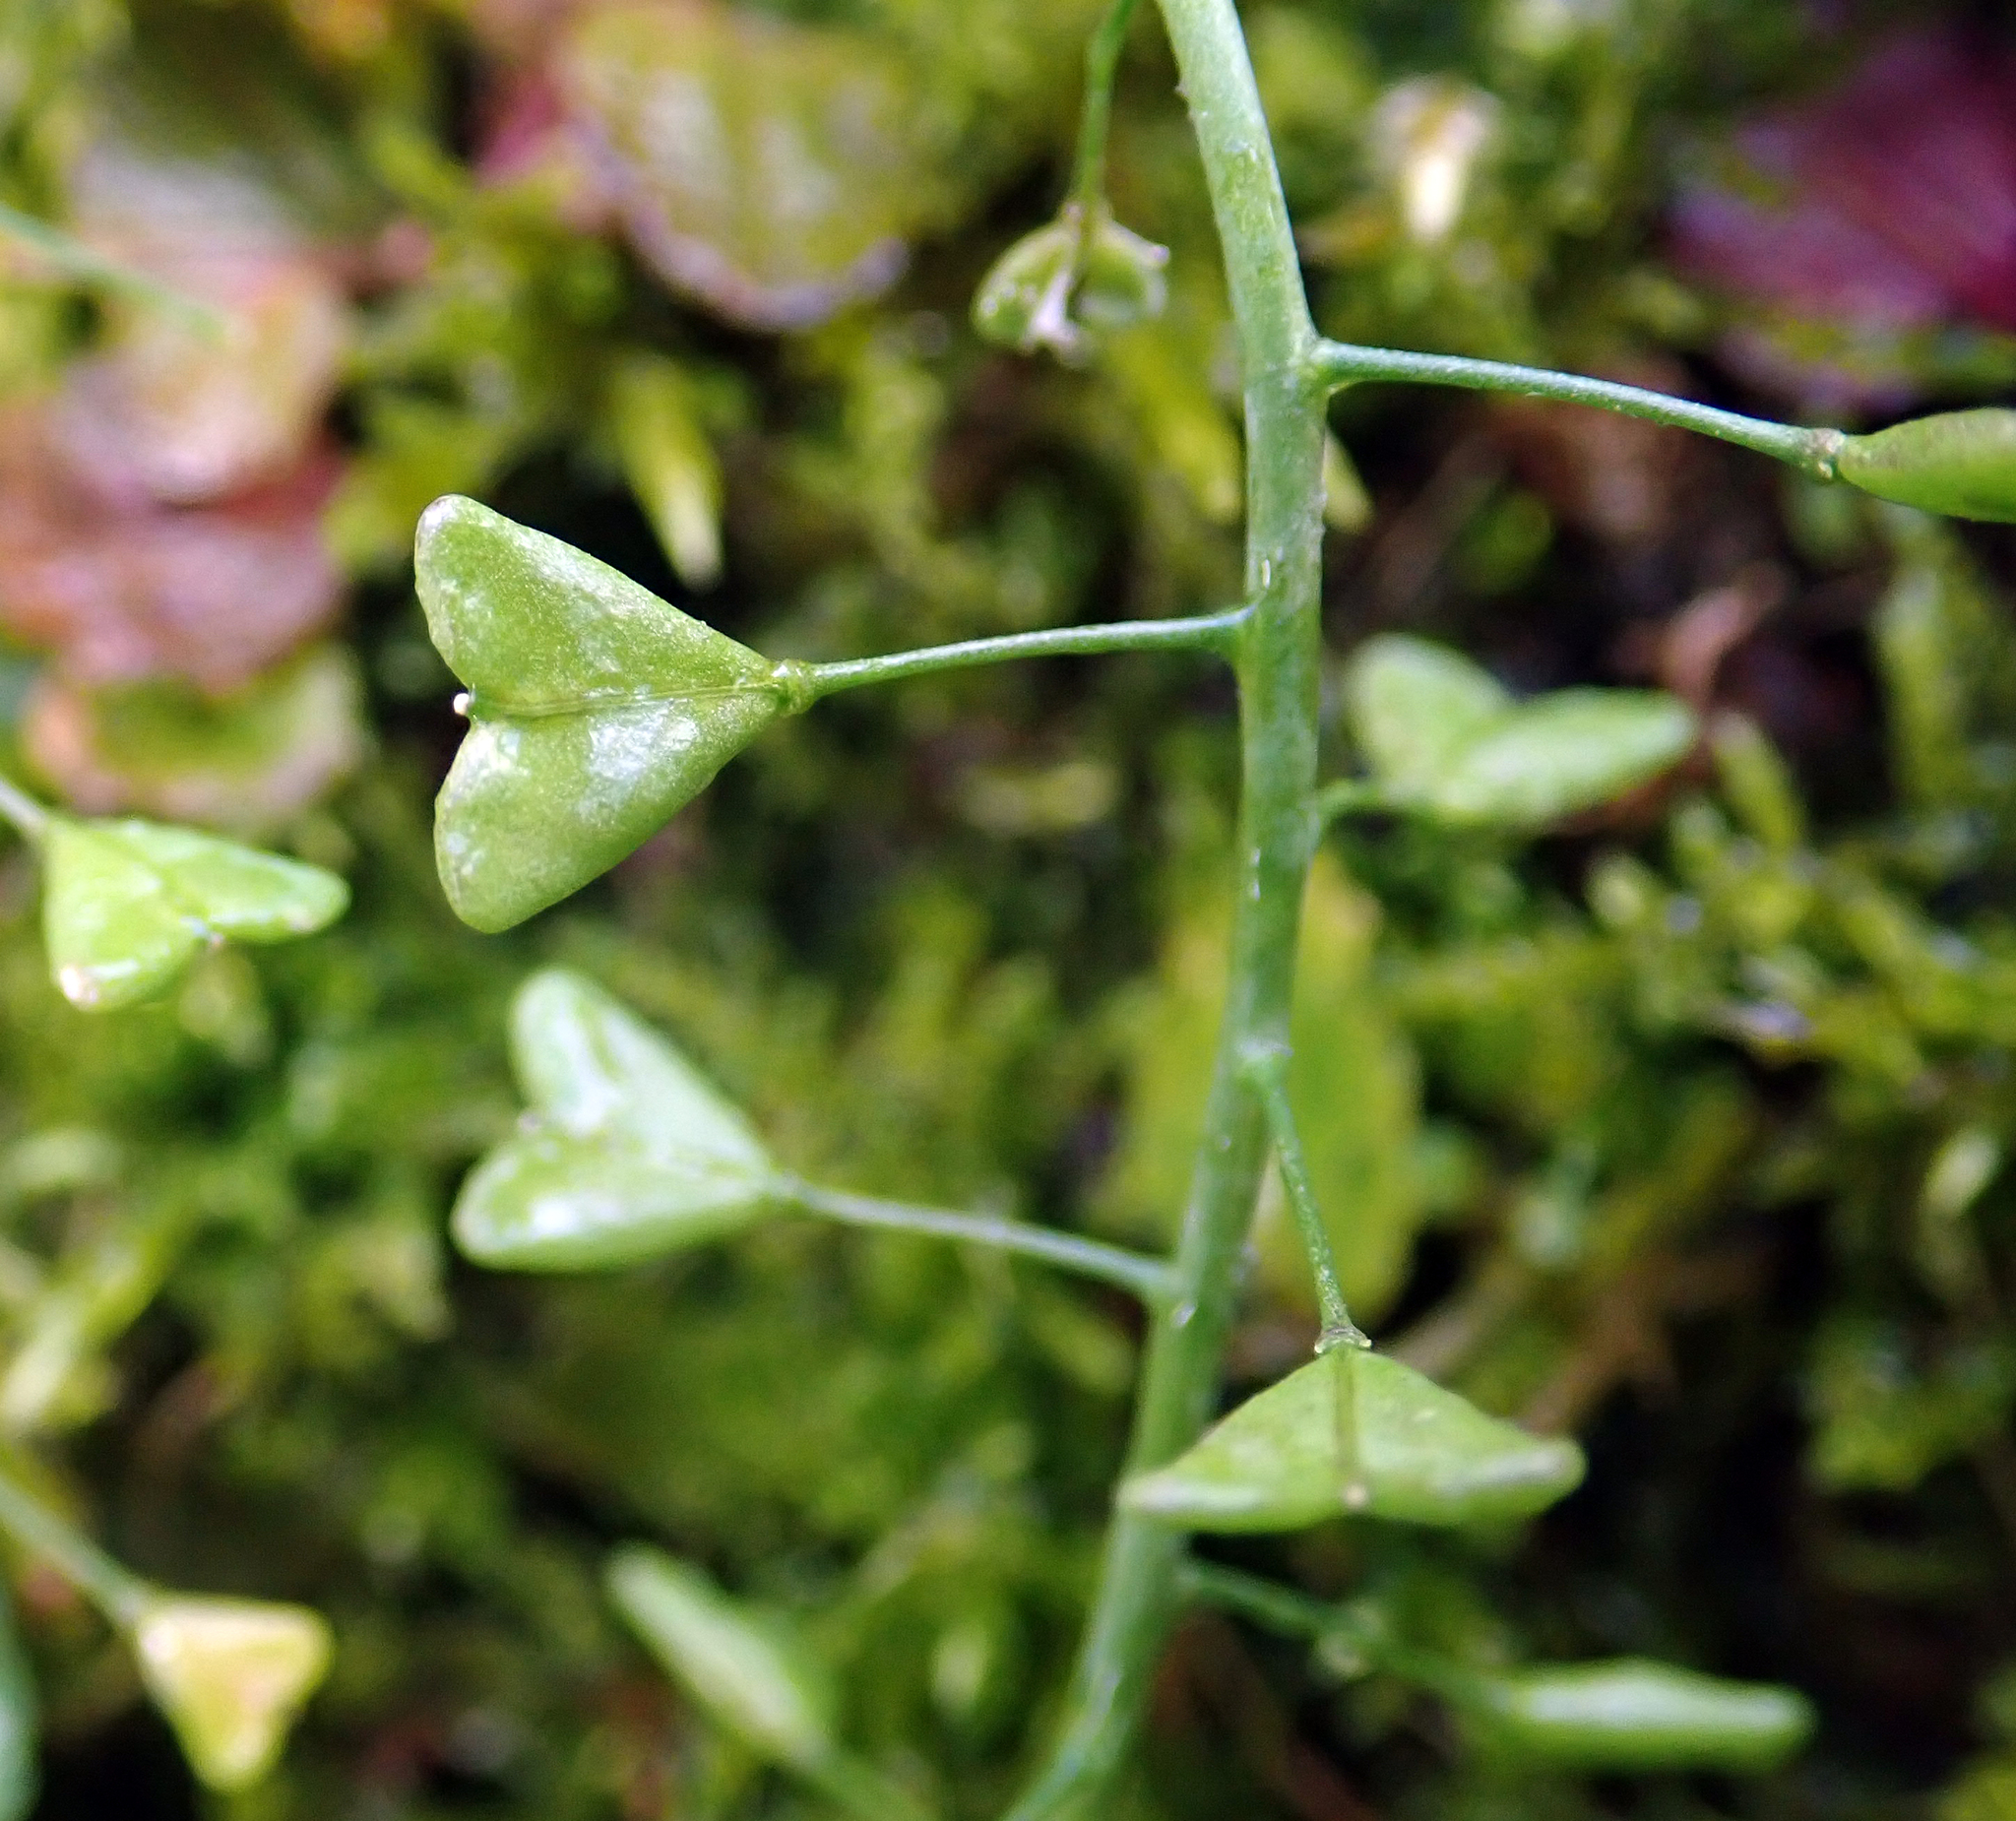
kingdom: Plantae
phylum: Tracheophyta
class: Magnoliopsida
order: Brassicales
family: Brassicaceae
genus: Capsella
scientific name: Capsella bursa-pastoris
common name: Shepherd's purse
